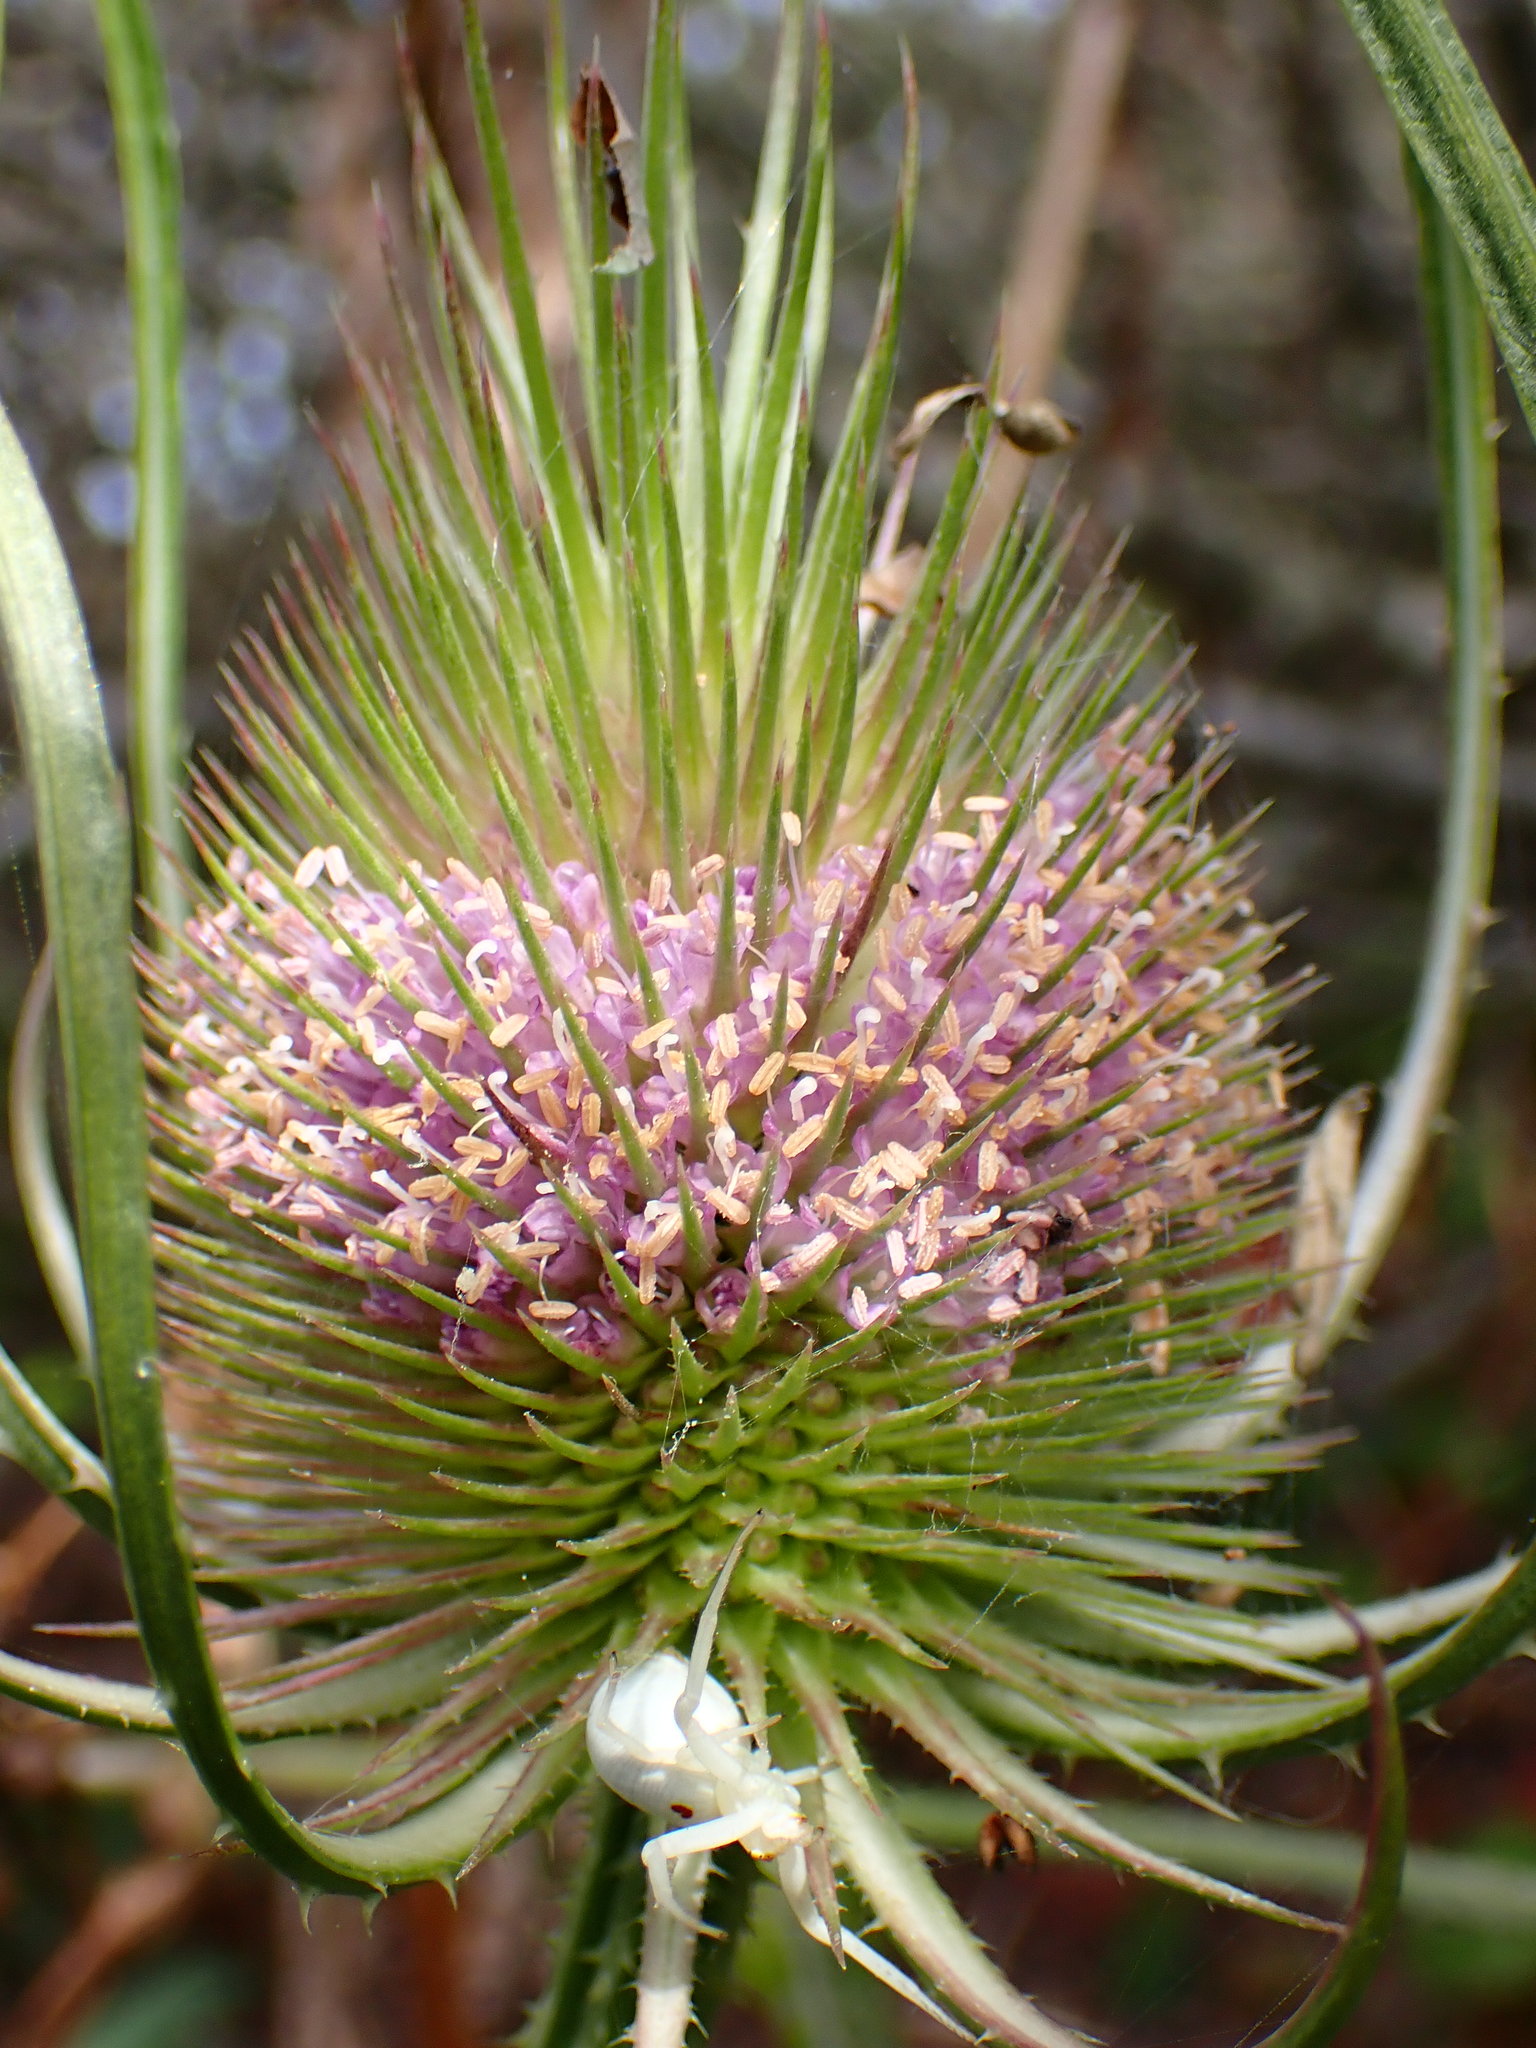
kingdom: Plantae
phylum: Tracheophyta
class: Magnoliopsida
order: Dipsacales
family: Caprifoliaceae
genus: Dipsacus
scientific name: Dipsacus fullonum
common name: Teasel
